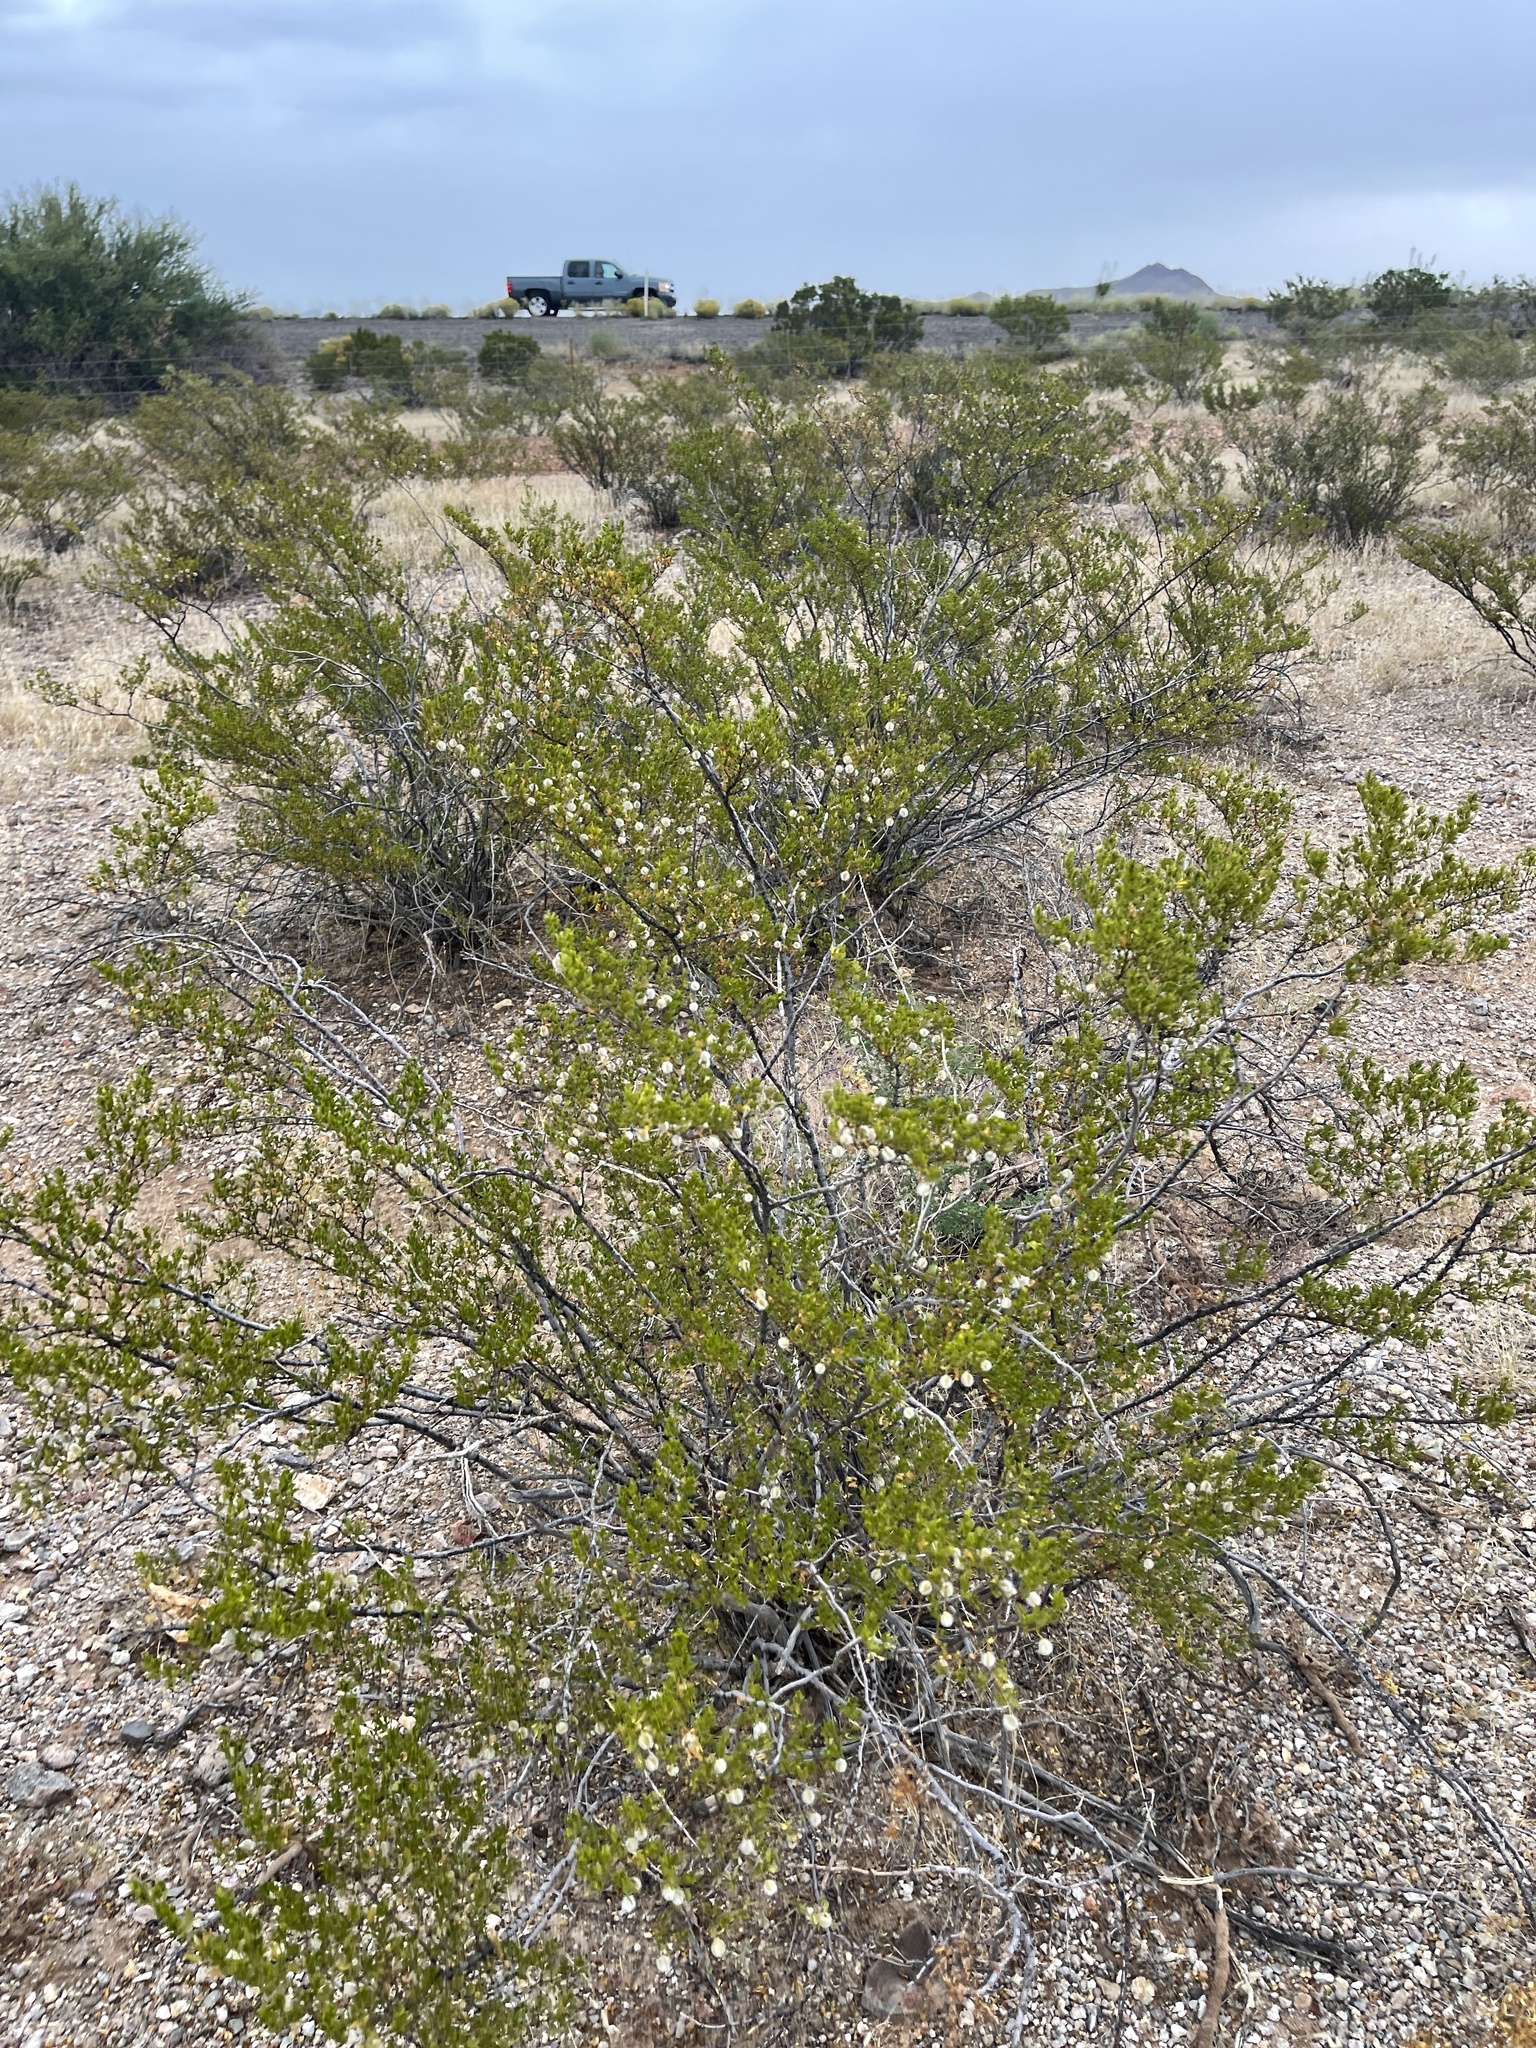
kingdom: Plantae
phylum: Tracheophyta
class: Magnoliopsida
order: Zygophyllales
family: Zygophyllaceae
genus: Larrea
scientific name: Larrea tridentata
